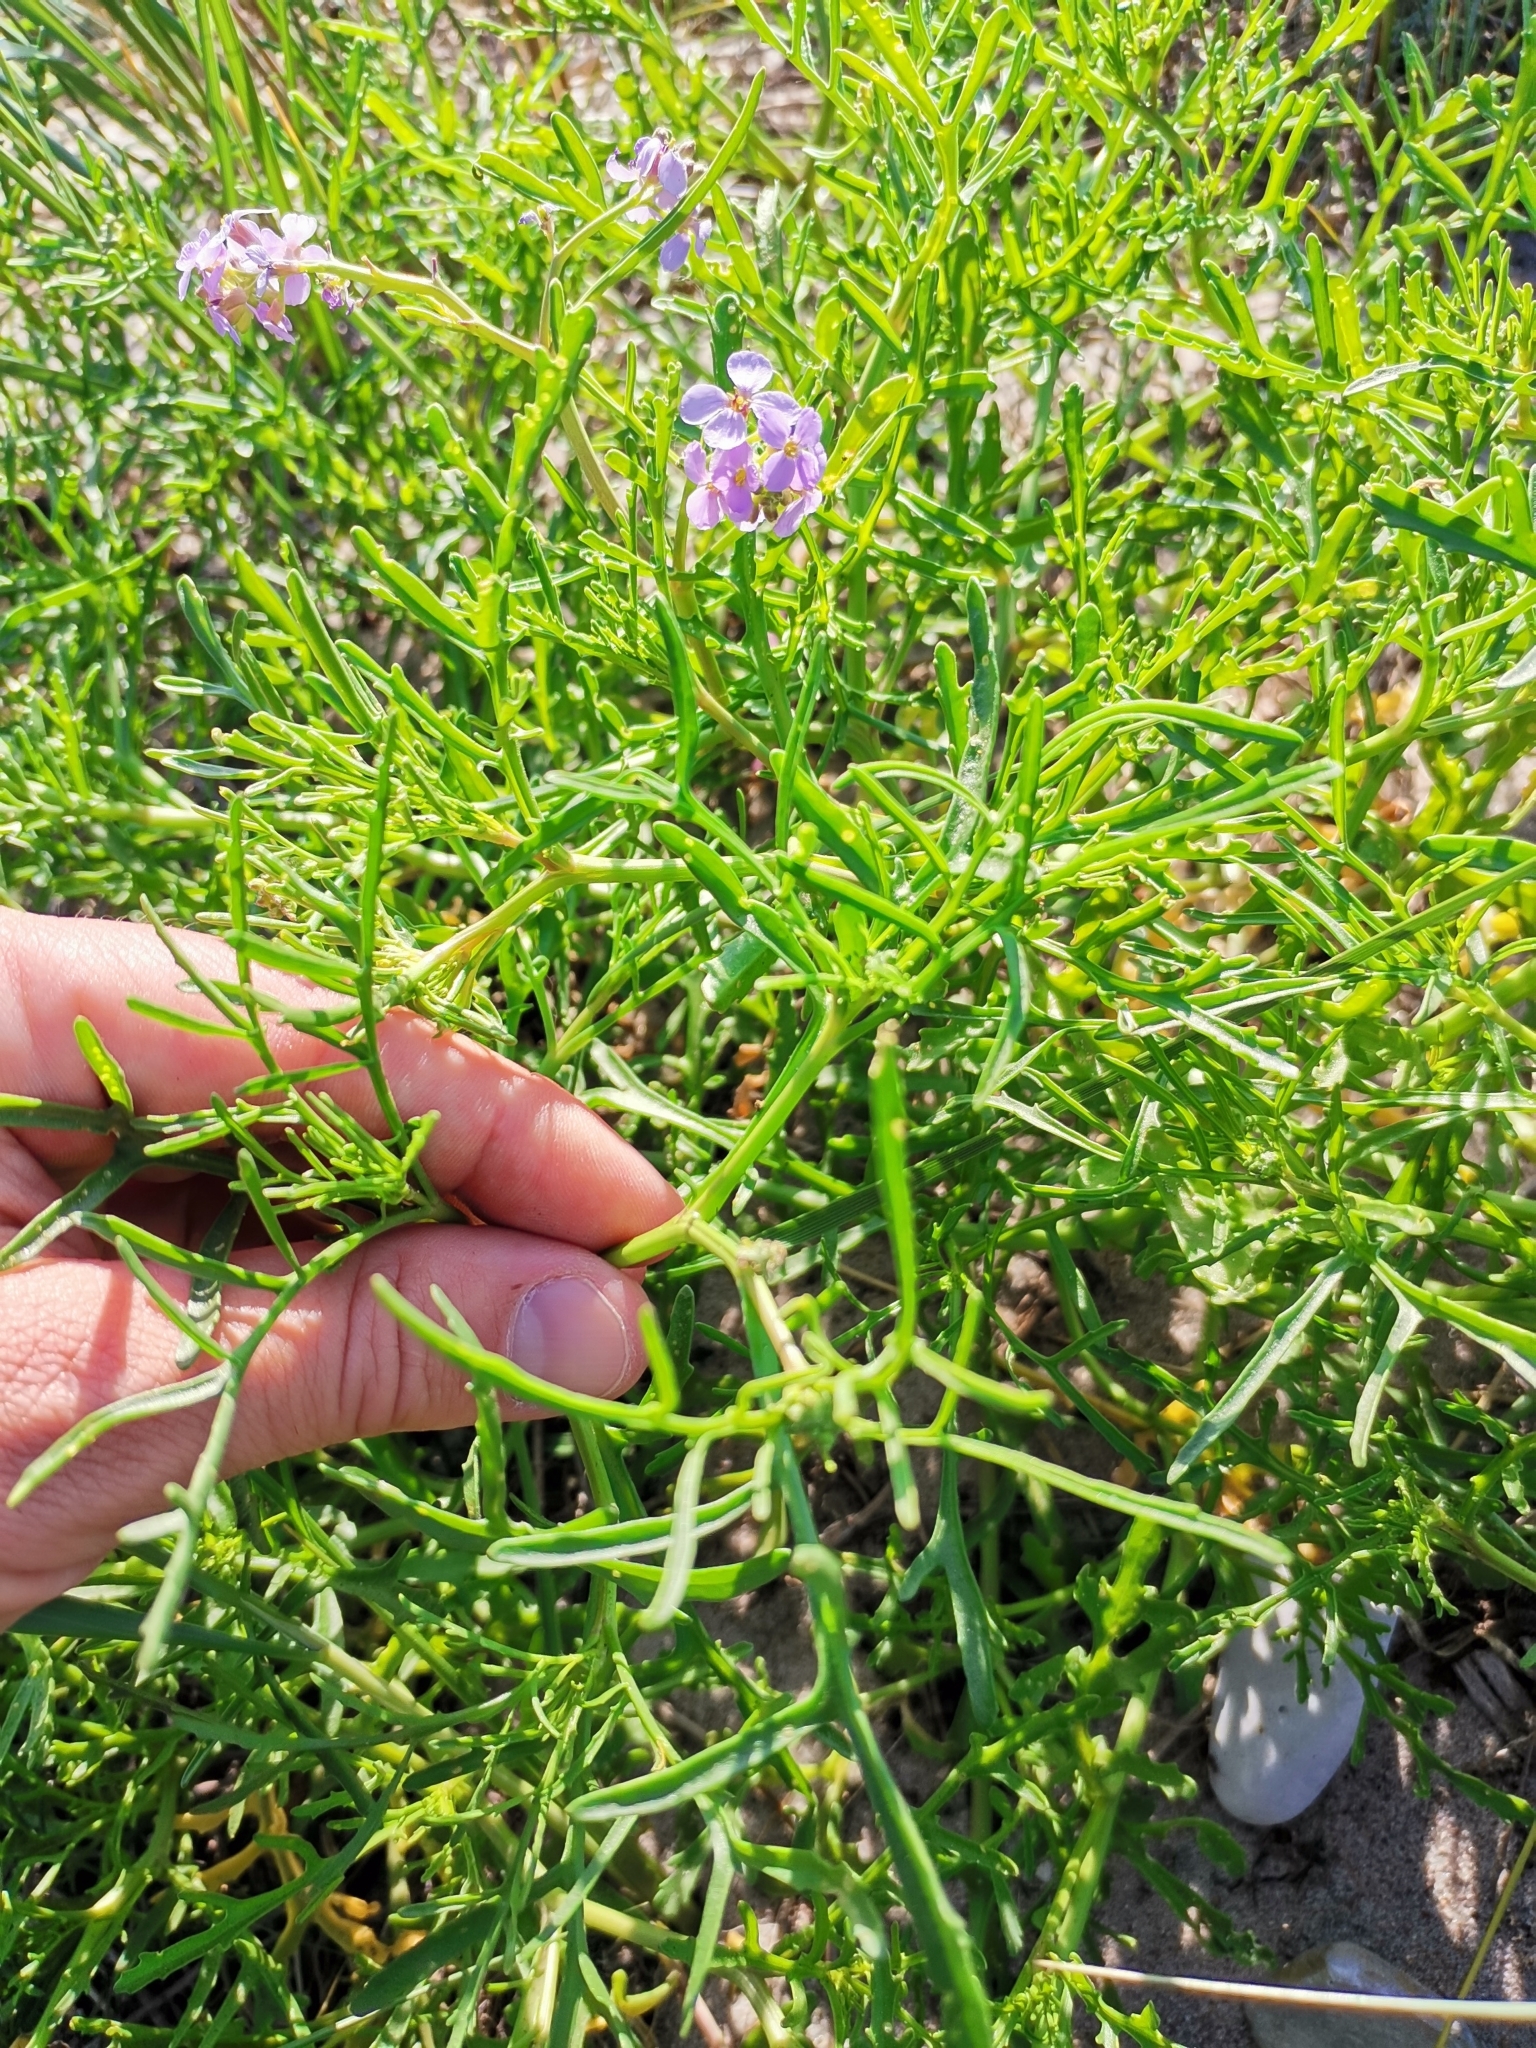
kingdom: Plantae
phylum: Tracheophyta
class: Magnoliopsida
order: Brassicales
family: Brassicaceae
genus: Cakile
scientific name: Cakile maritima
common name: Sea rocket
